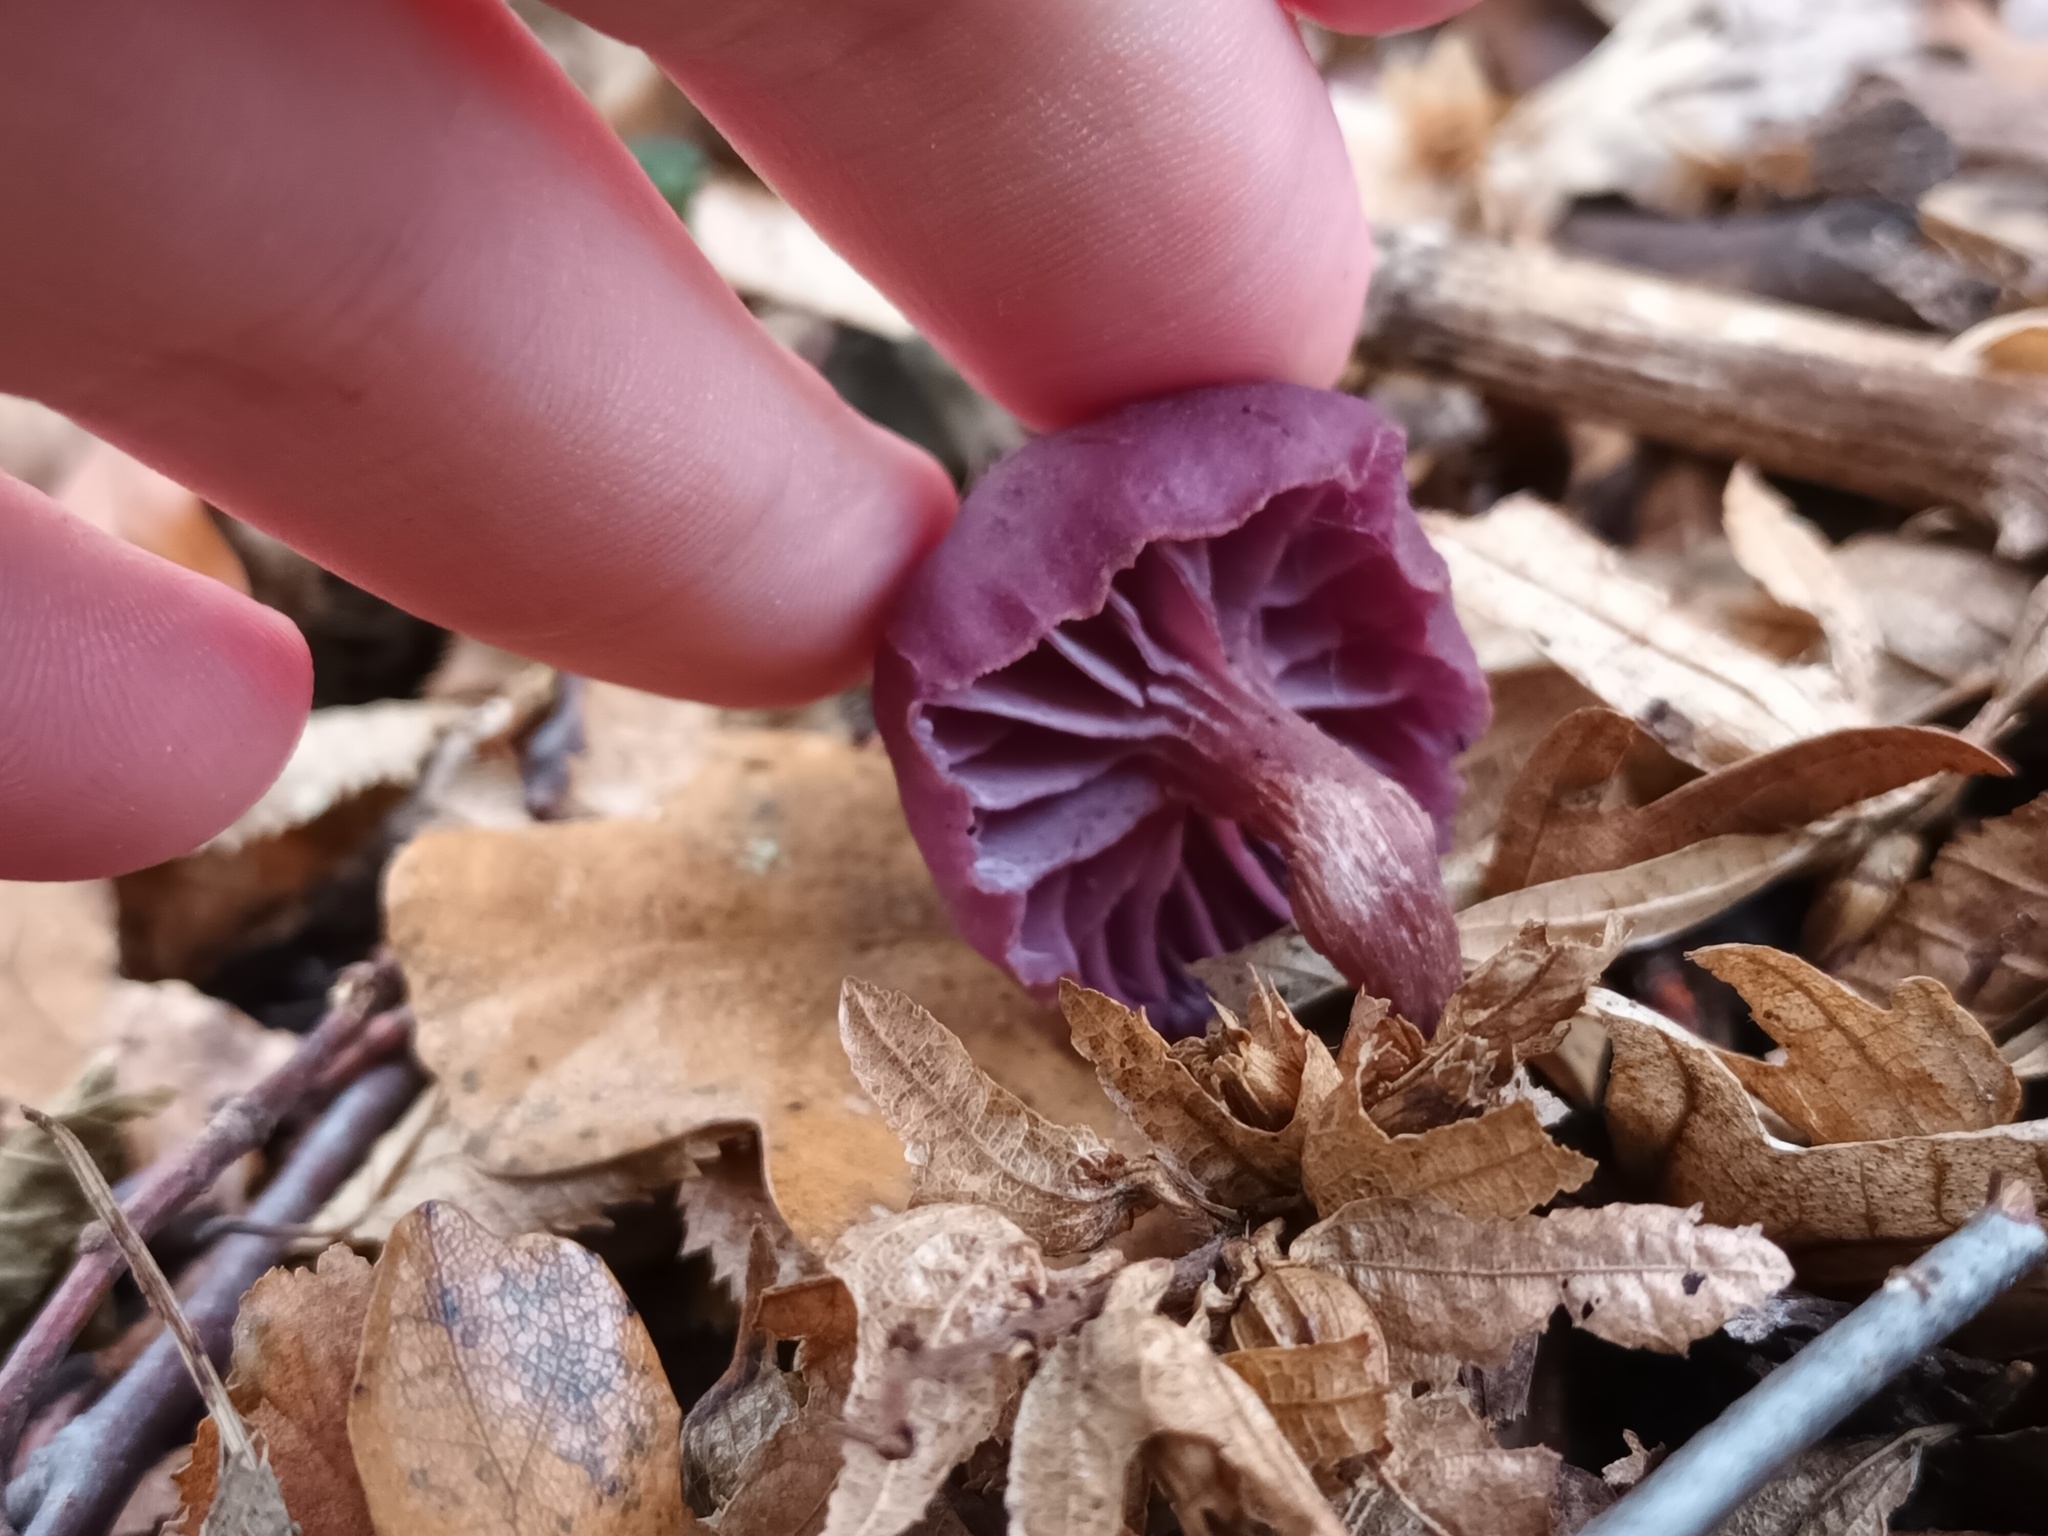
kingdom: Fungi
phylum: Basidiomycota
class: Agaricomycetes
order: Agaricales
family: Hydnangiaceae
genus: Laccaria
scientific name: Laccaria amethystina
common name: Amethyst deceiver
